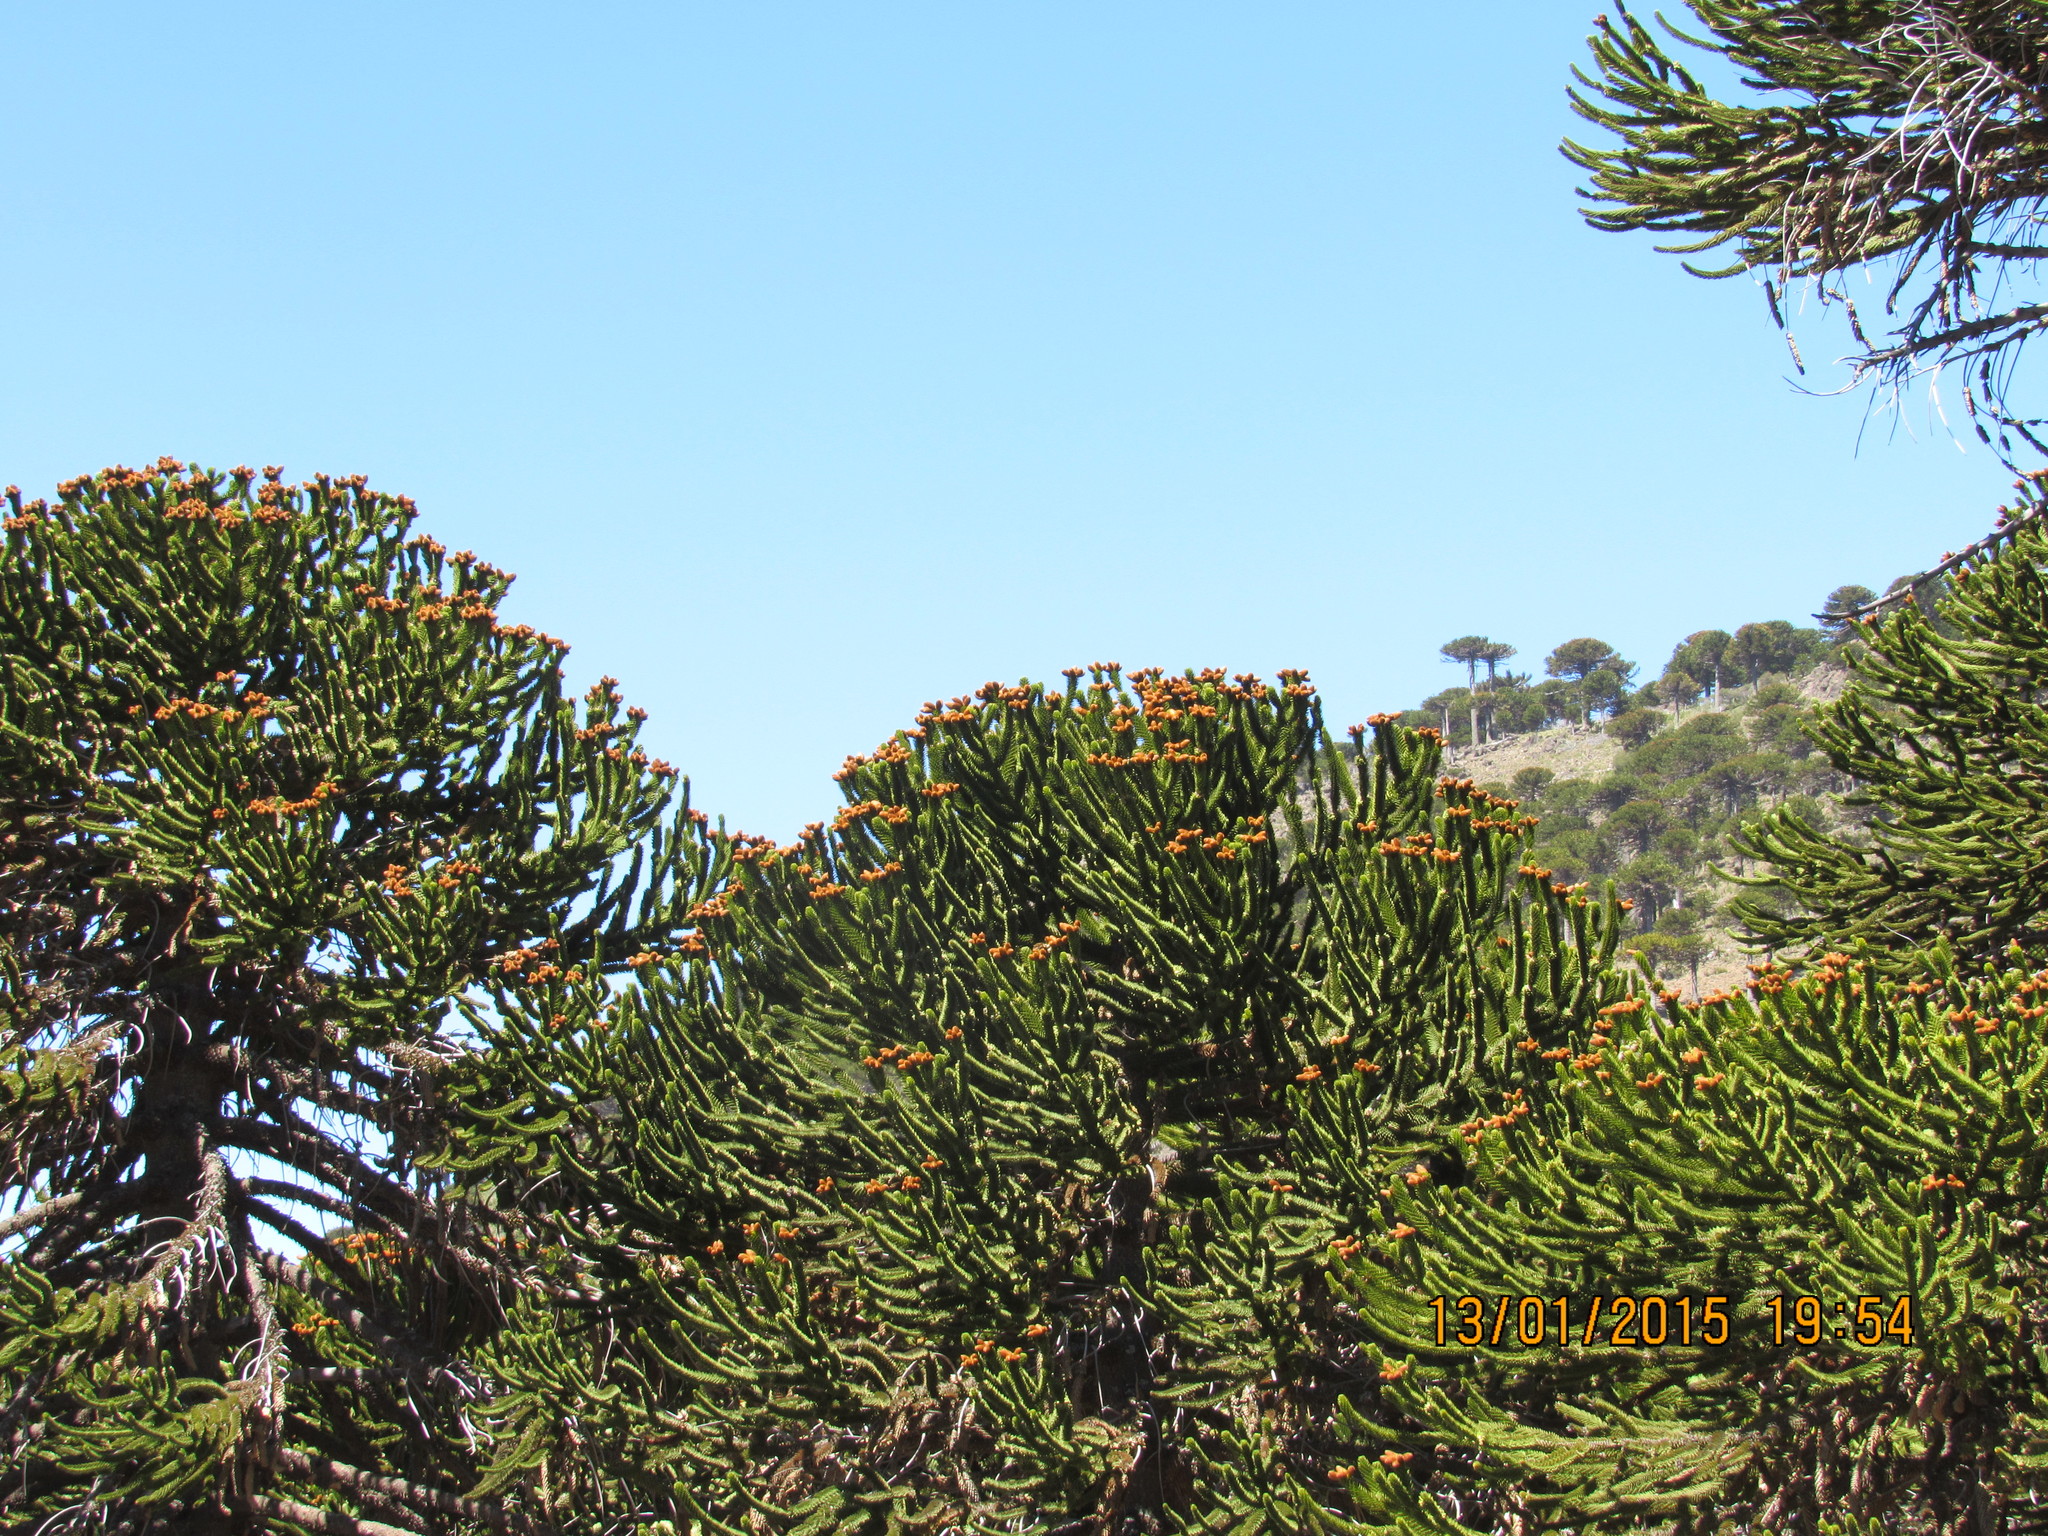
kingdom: Plantae
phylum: Tracheophyta
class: Pinopsida
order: Pinales
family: Araucariaceae
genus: Araucaria
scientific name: Araucaria araucana
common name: Monkey-puzzle
